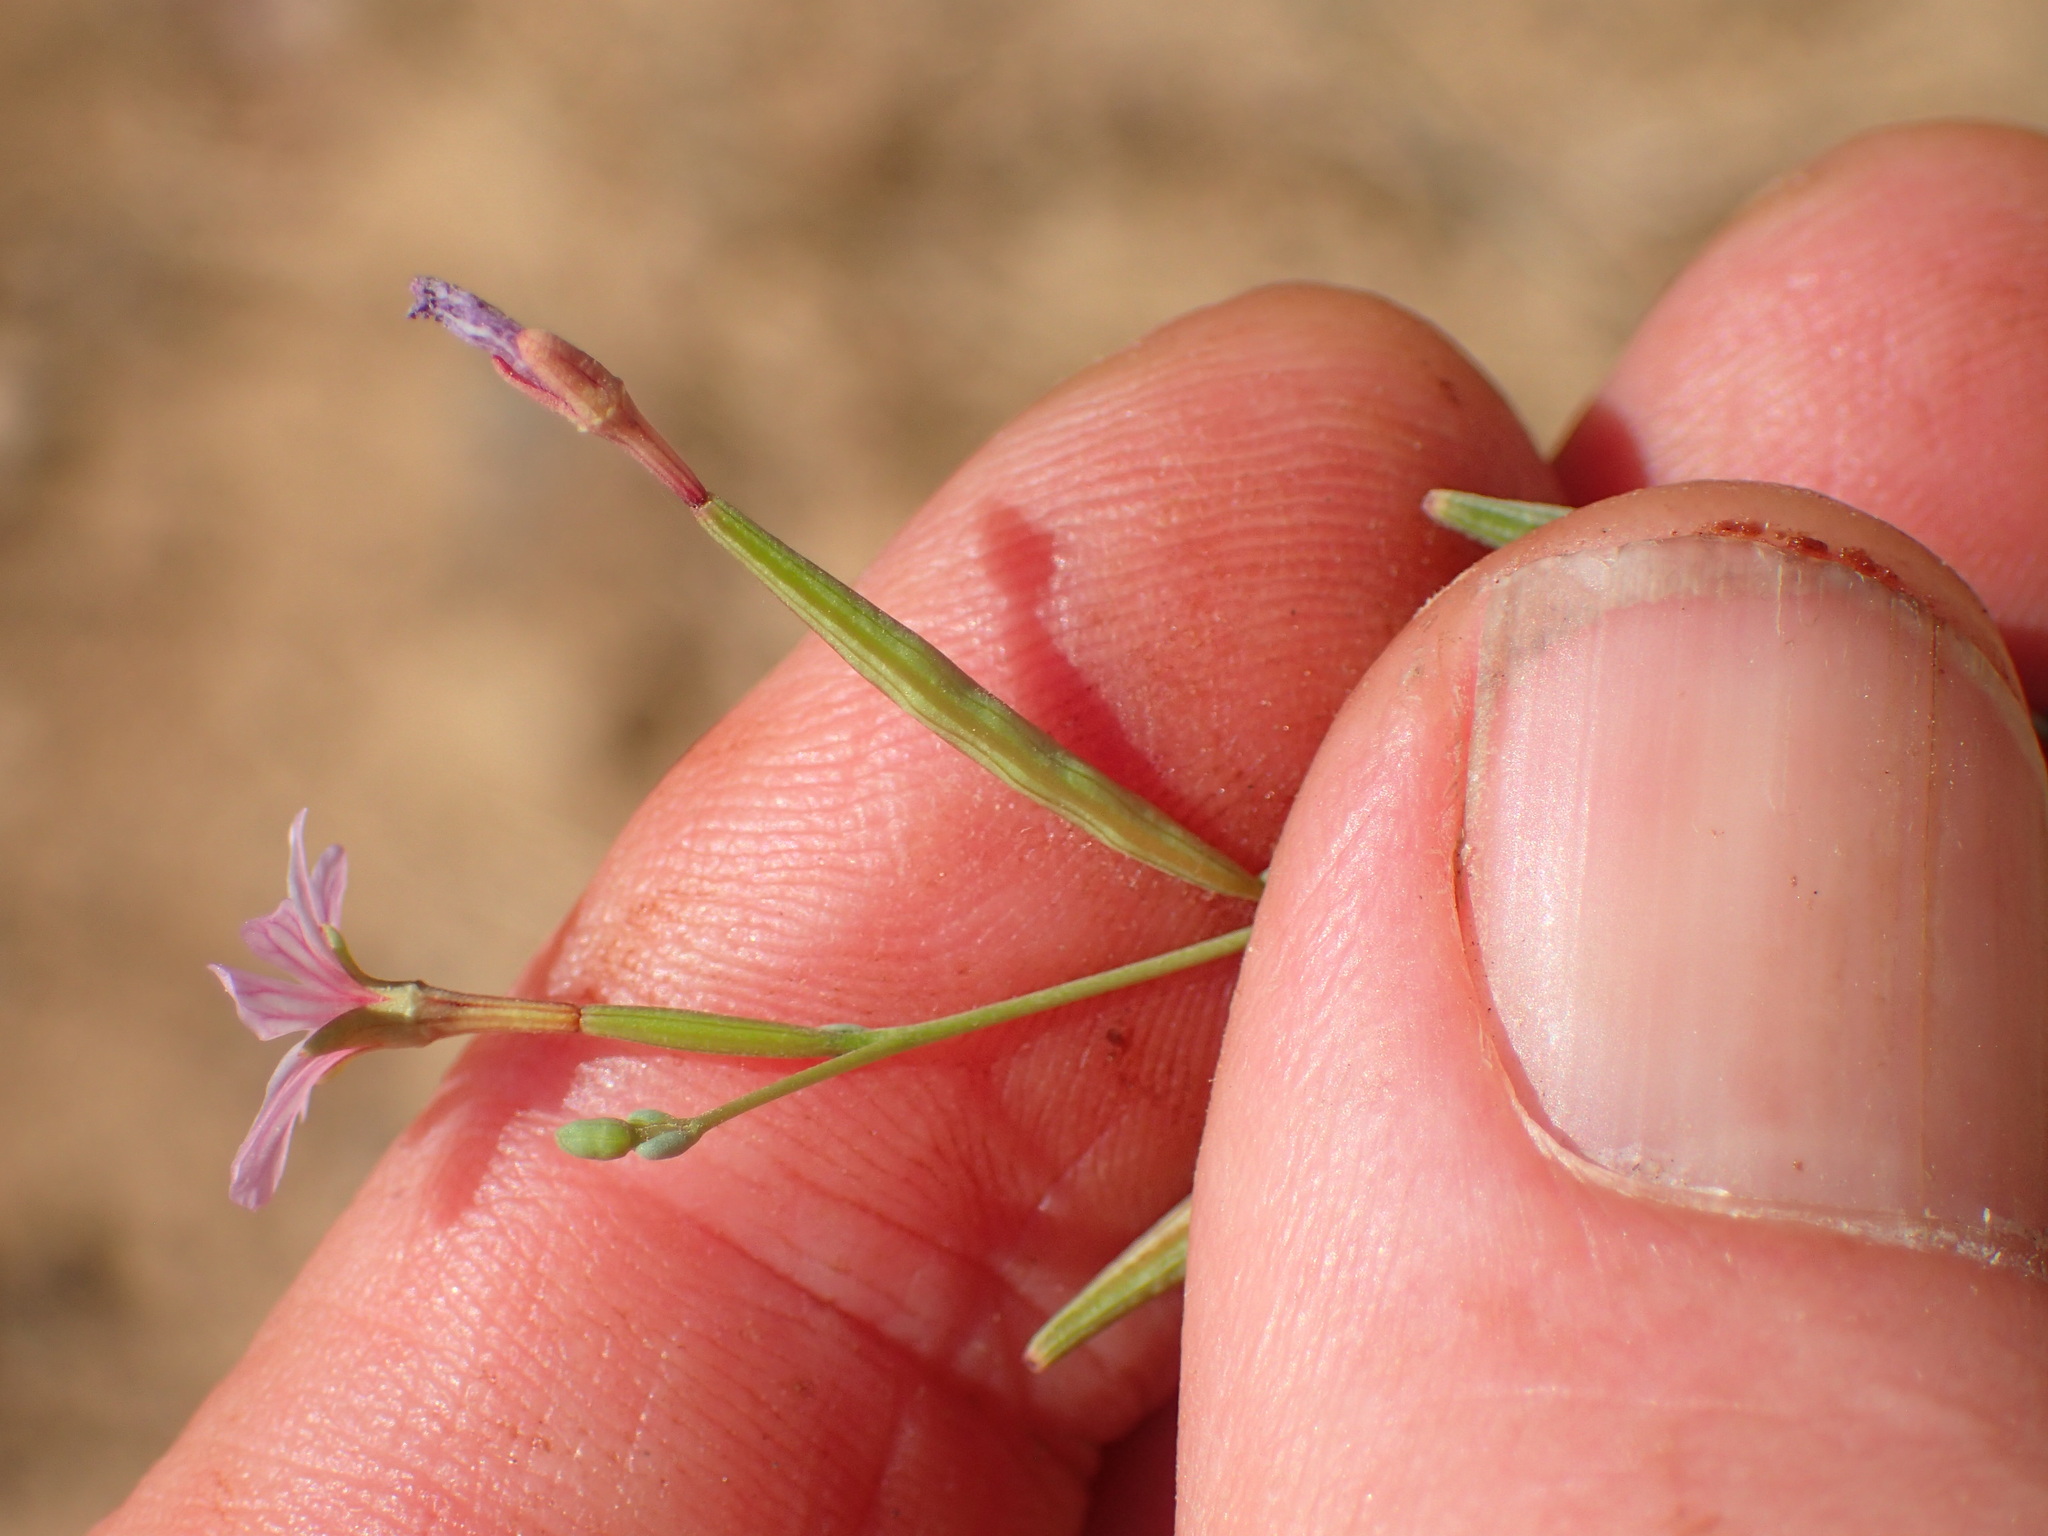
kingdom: Plantae
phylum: Tracheophyta
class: Magnoliopsida
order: Myrtales
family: Onagraceae
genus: Epilobium
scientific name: Epilobium brachycarpum
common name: Annual willowherb
